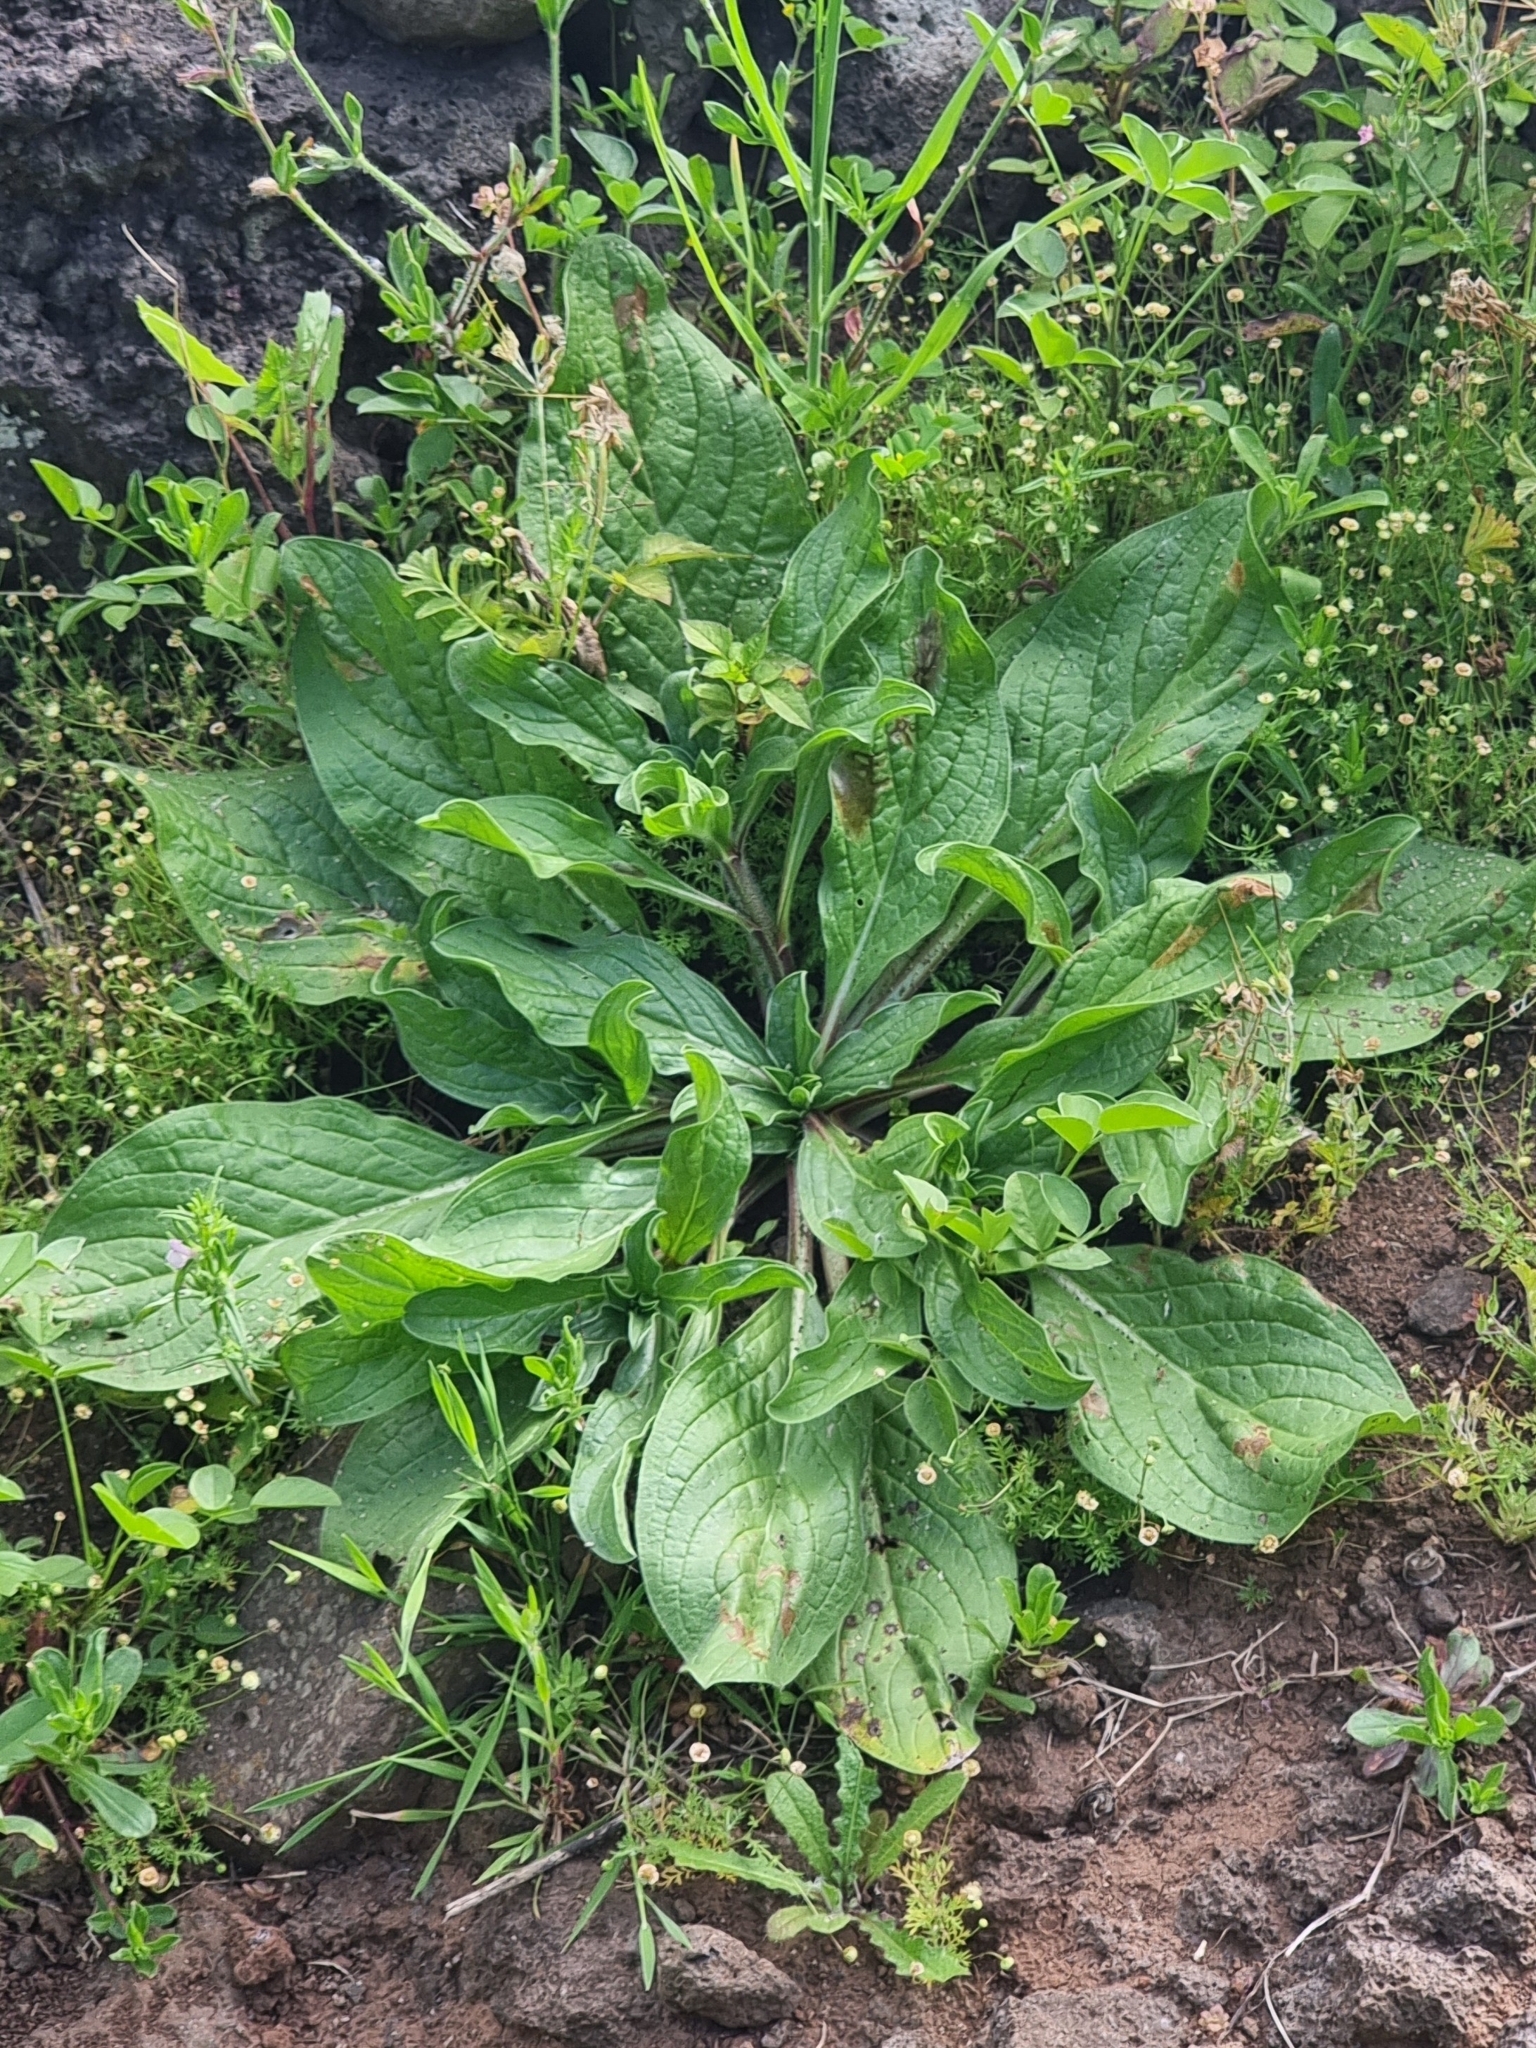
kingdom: Plantae
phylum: Tracheophyta
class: Magnoliopsida
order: Boraginales
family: Boraginaceae
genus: Echium
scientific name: Echium plantagineum
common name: Purple viper's-bugloss
